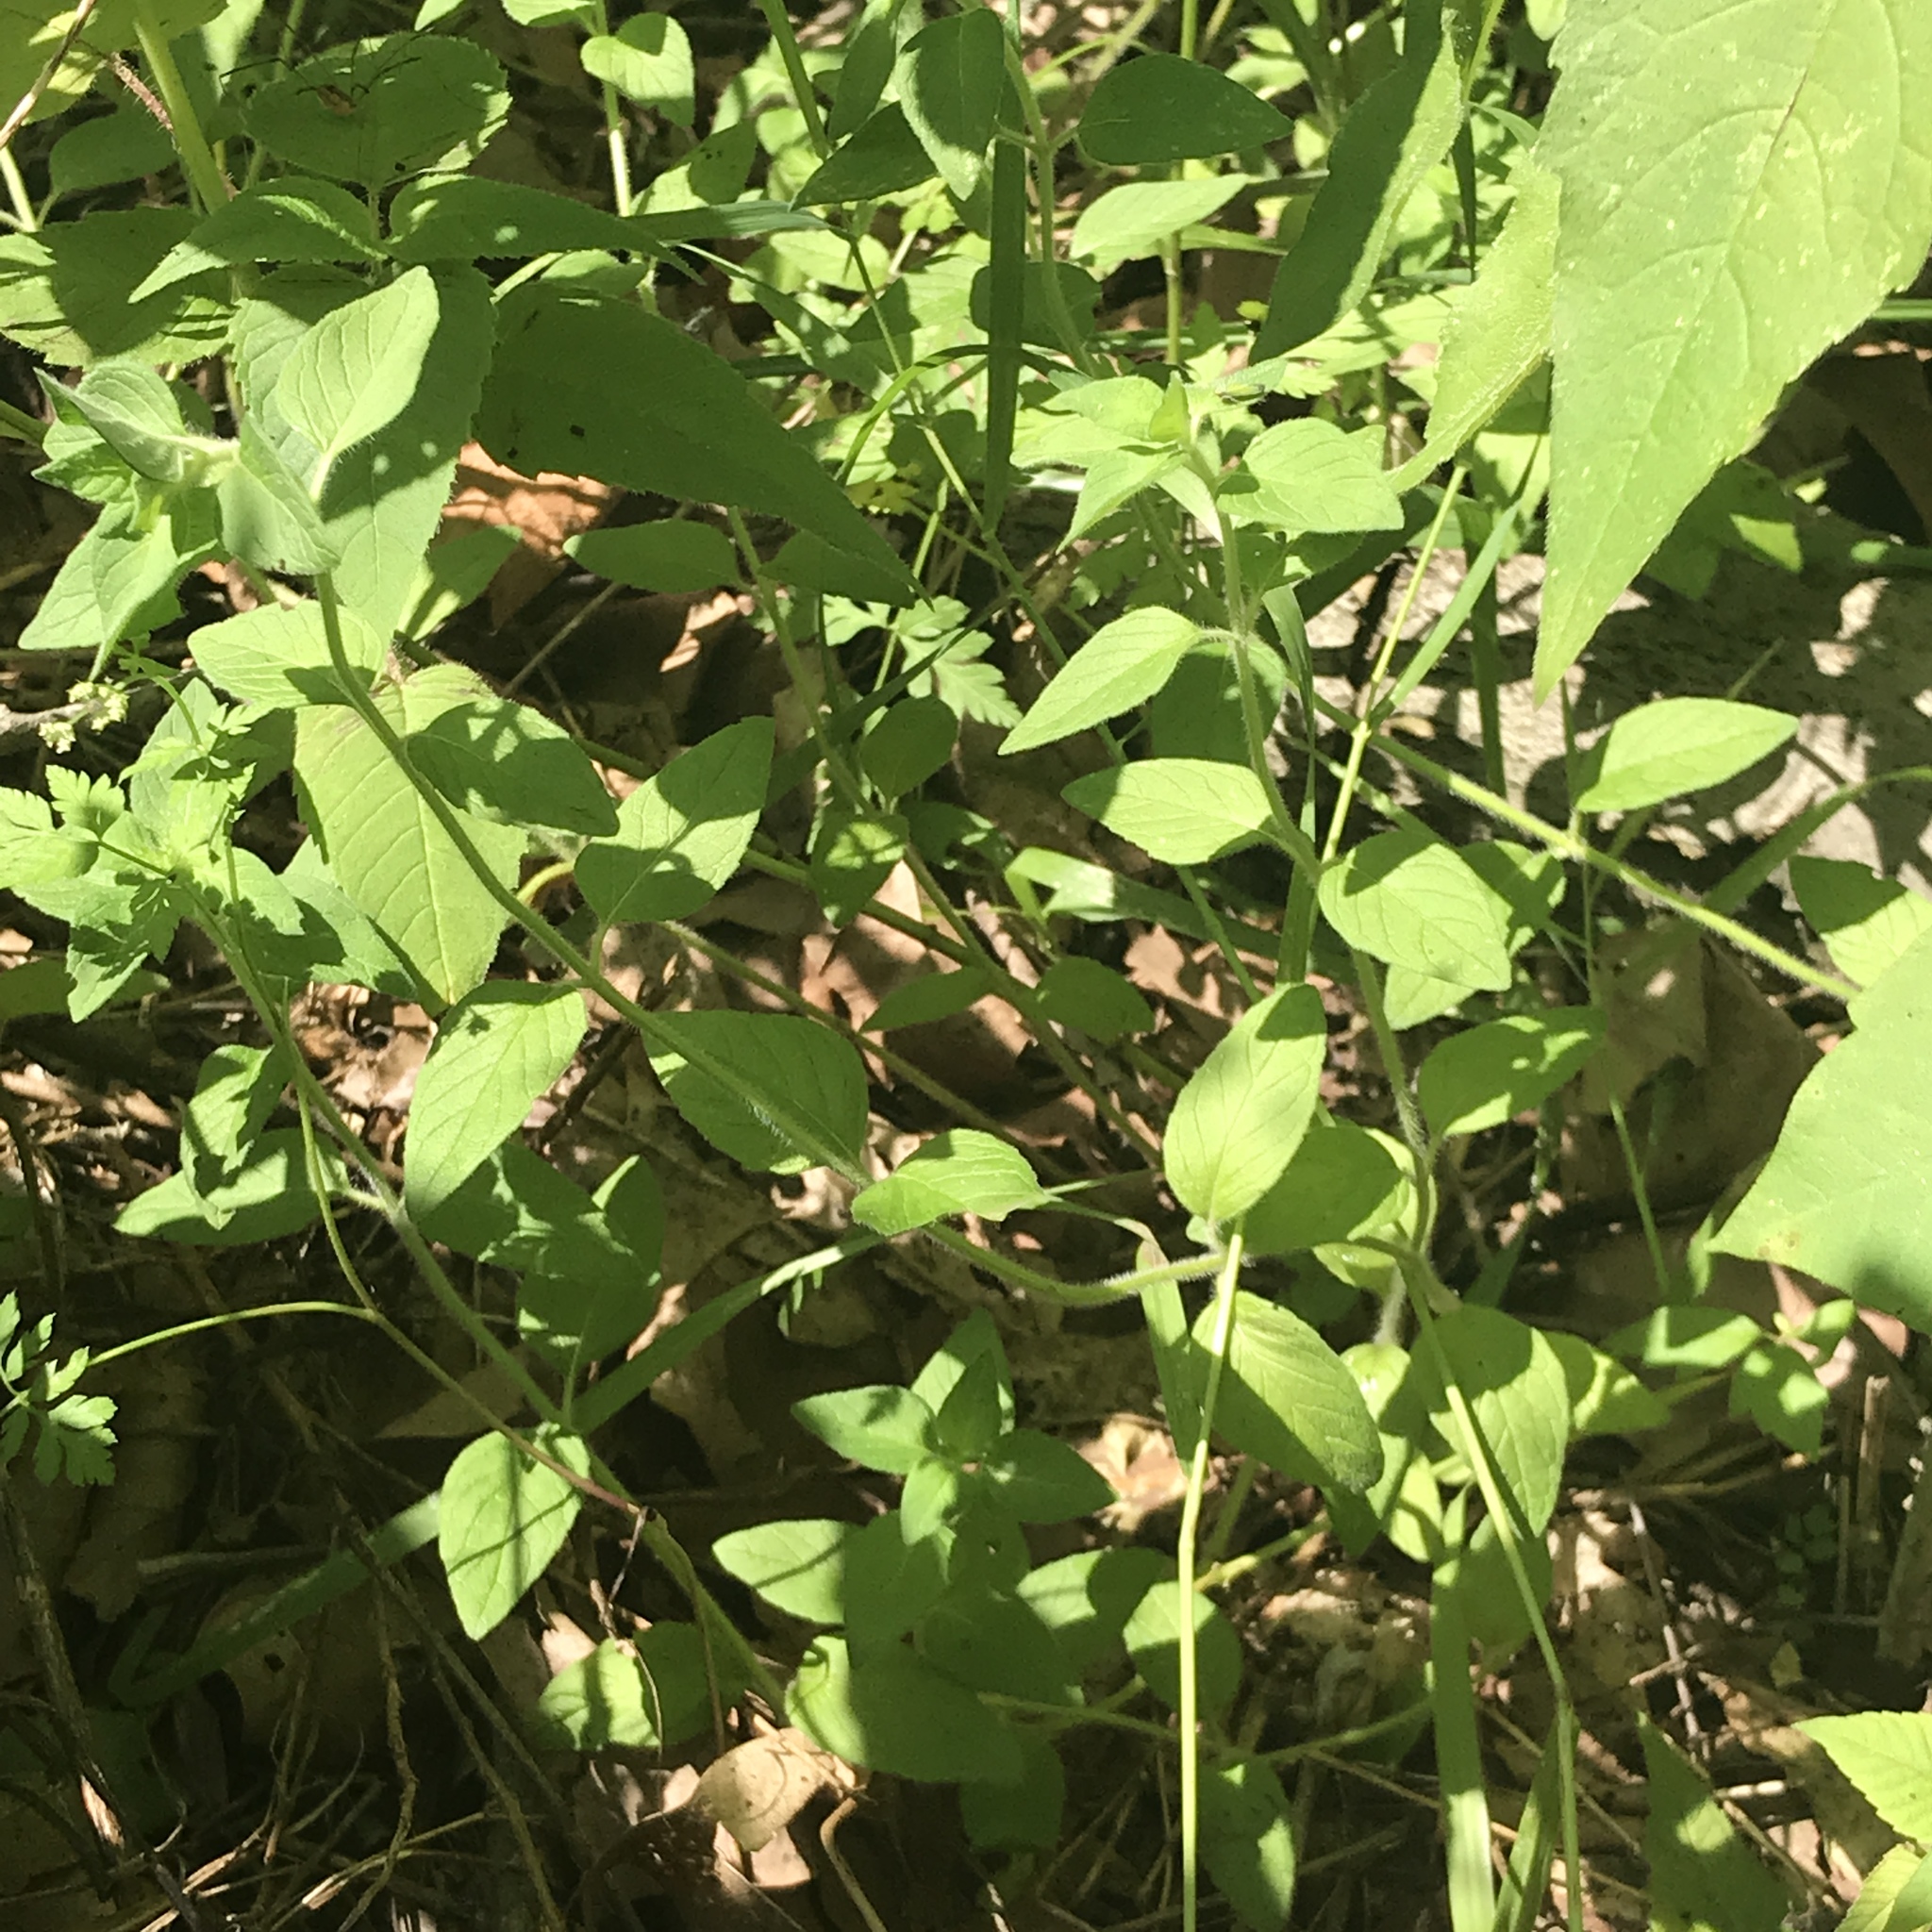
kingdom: Plantae
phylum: Tracheophyta
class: Magnoliopsida
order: Lamiales
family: Lamiaceae
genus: Clinopodium
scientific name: Clinopodium vulgare
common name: Wild basil
